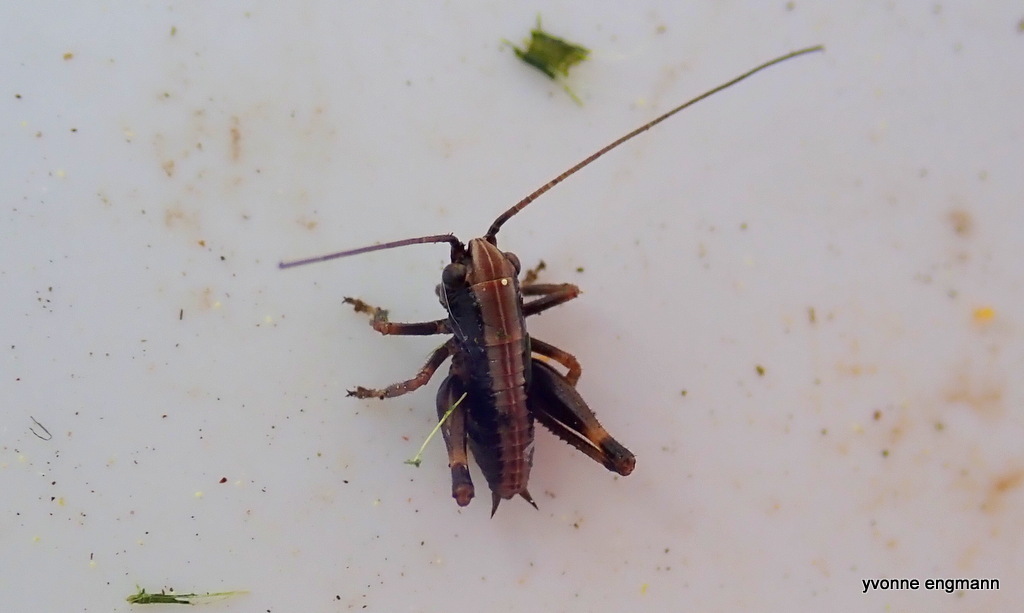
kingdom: Animalia
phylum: Arthropoda
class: Insecta
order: Orthoptera
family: Tettigoniidae
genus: Pholidoptera
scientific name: Pholidoptera griseoaptera
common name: Dark bush-cricket
